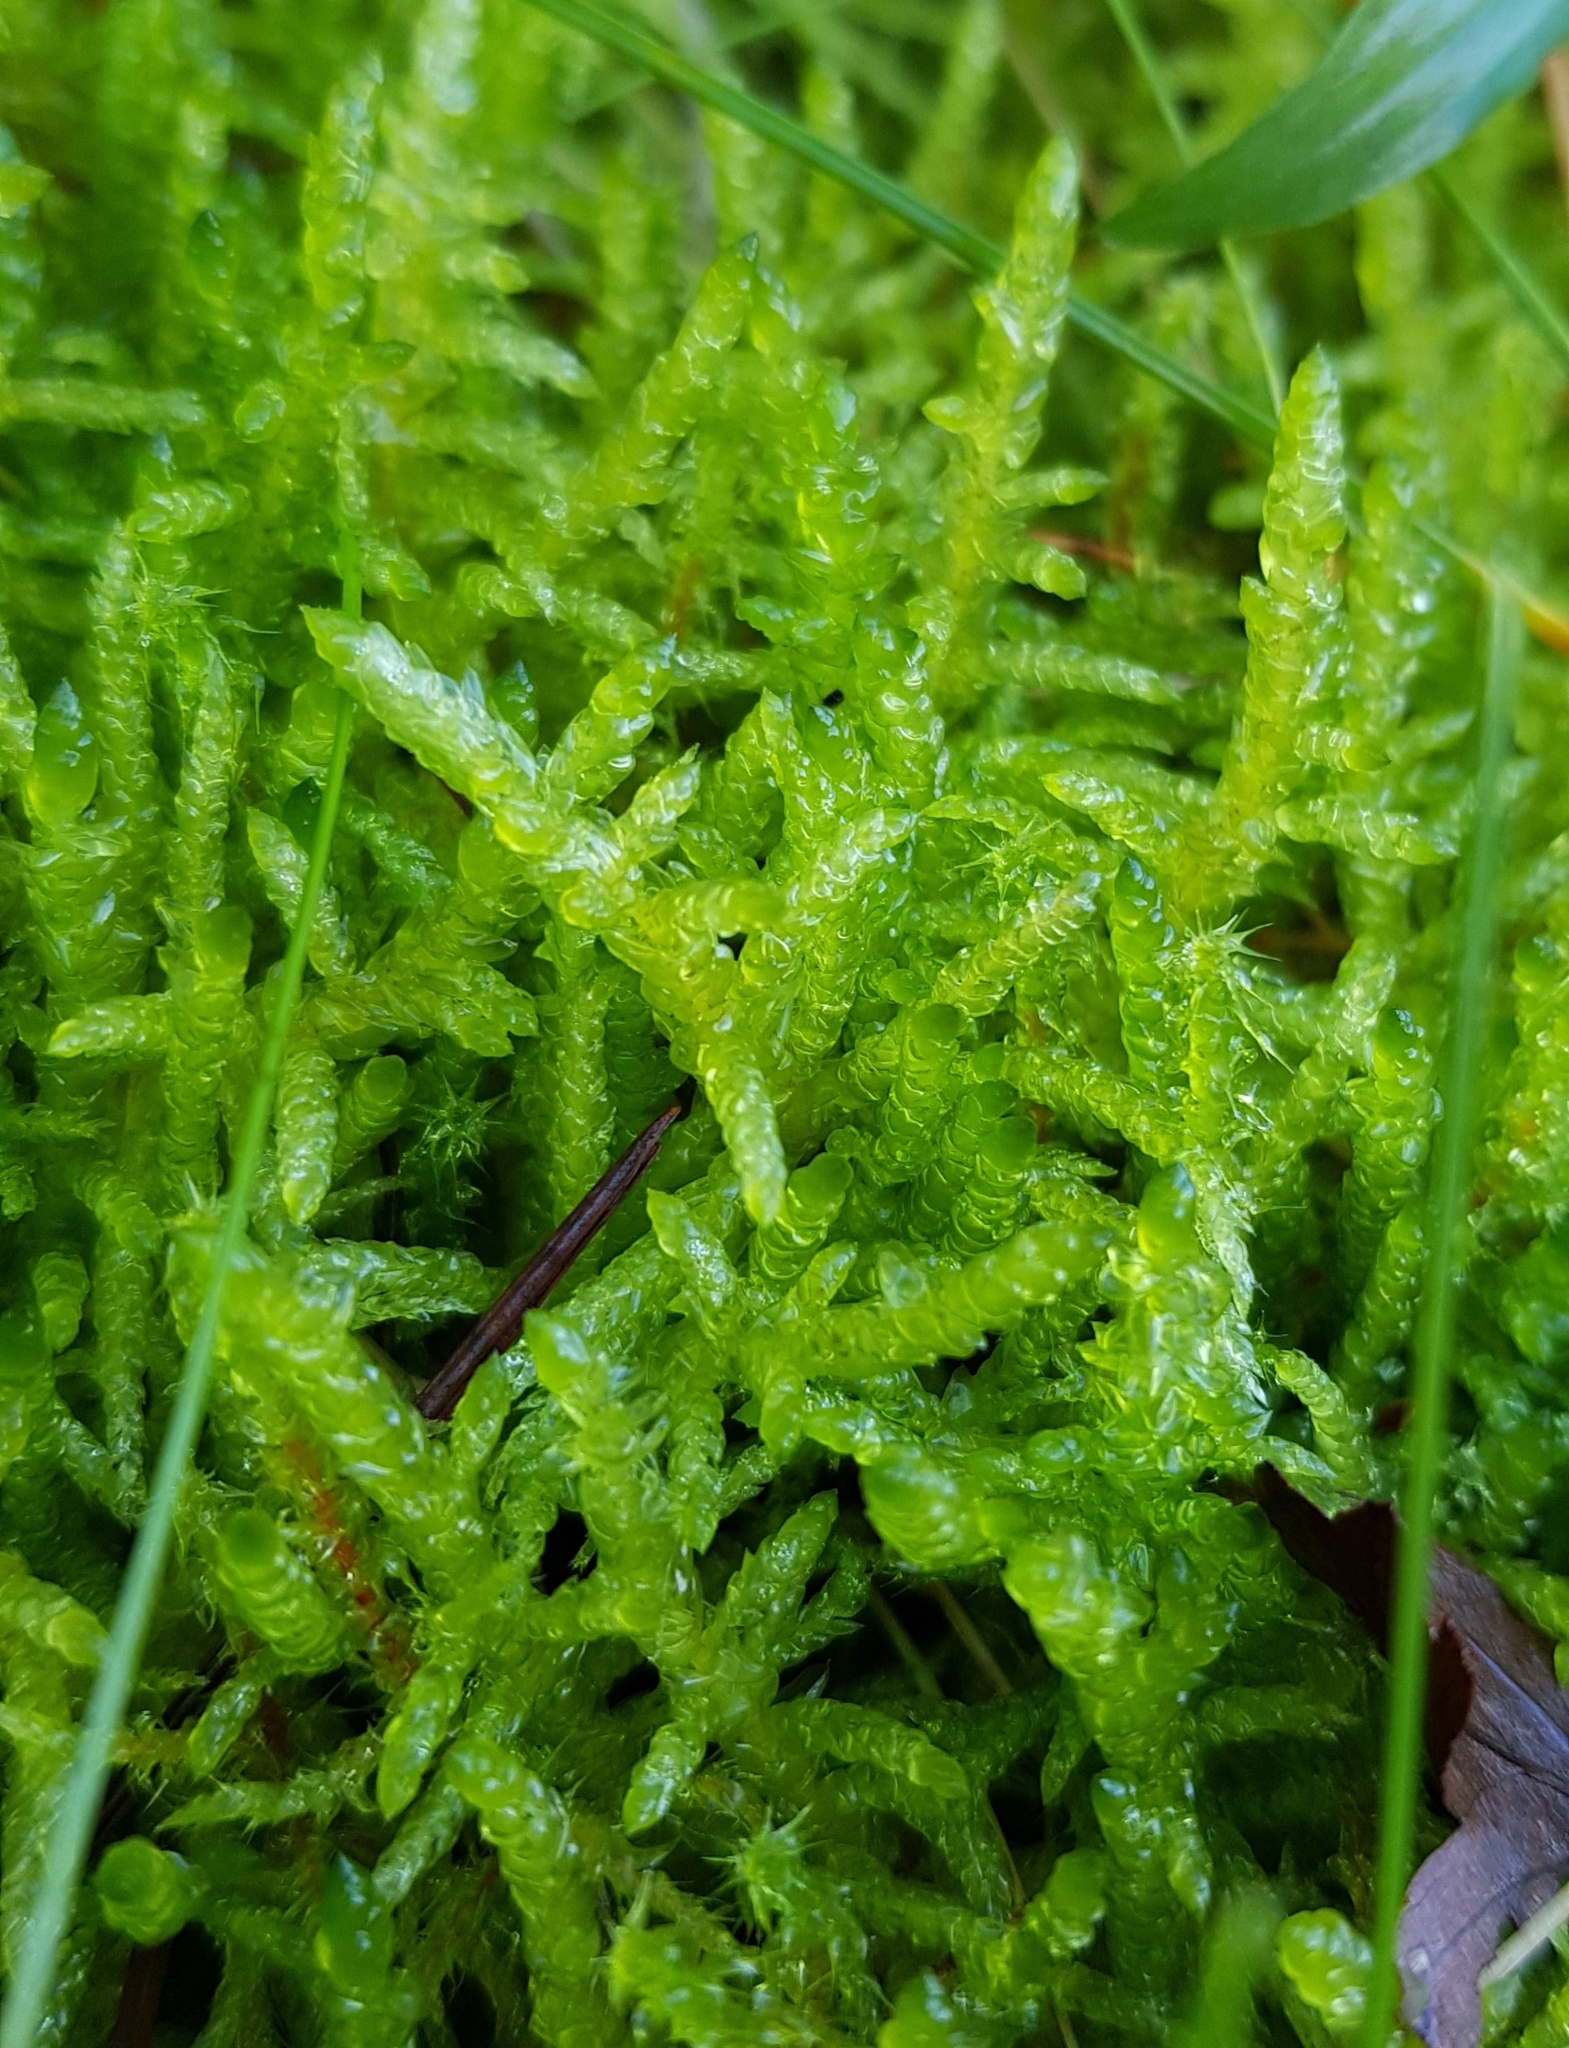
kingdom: Plantae
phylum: Bryophyta
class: Bryopsida
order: Hypnales
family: Brachytheciaceae
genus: Pseudoscleropodium
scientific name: Pseudoscleropodium purum
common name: Neat feather-moss
